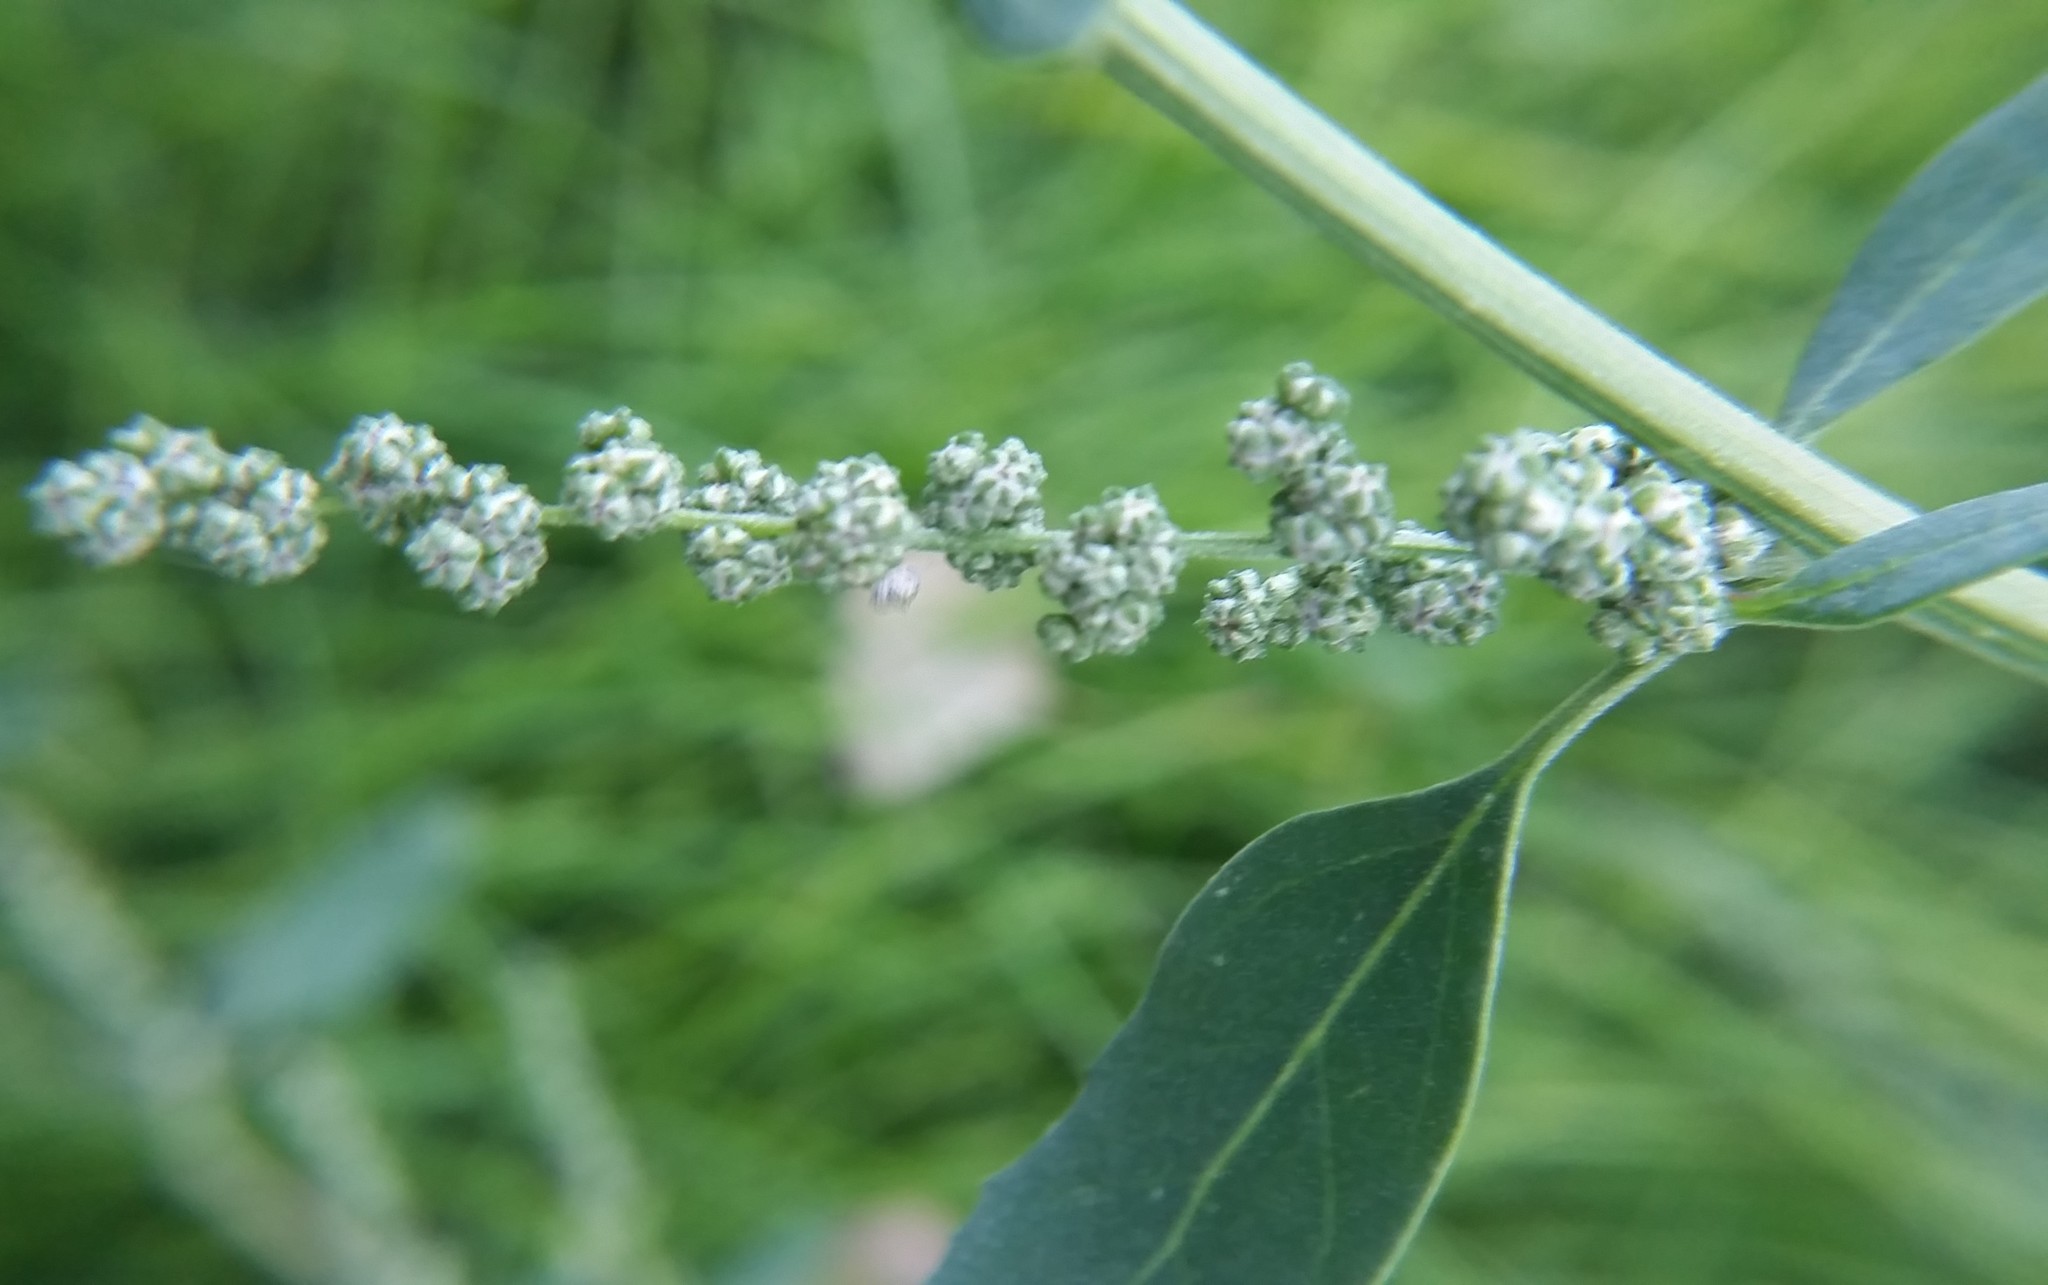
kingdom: Plantae
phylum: Tracheophyta
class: Magnoliopsida
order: Caryophyllales
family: Amaranthaceae
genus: Chenopodium
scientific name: Chenopodium album
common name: Fat-hen
